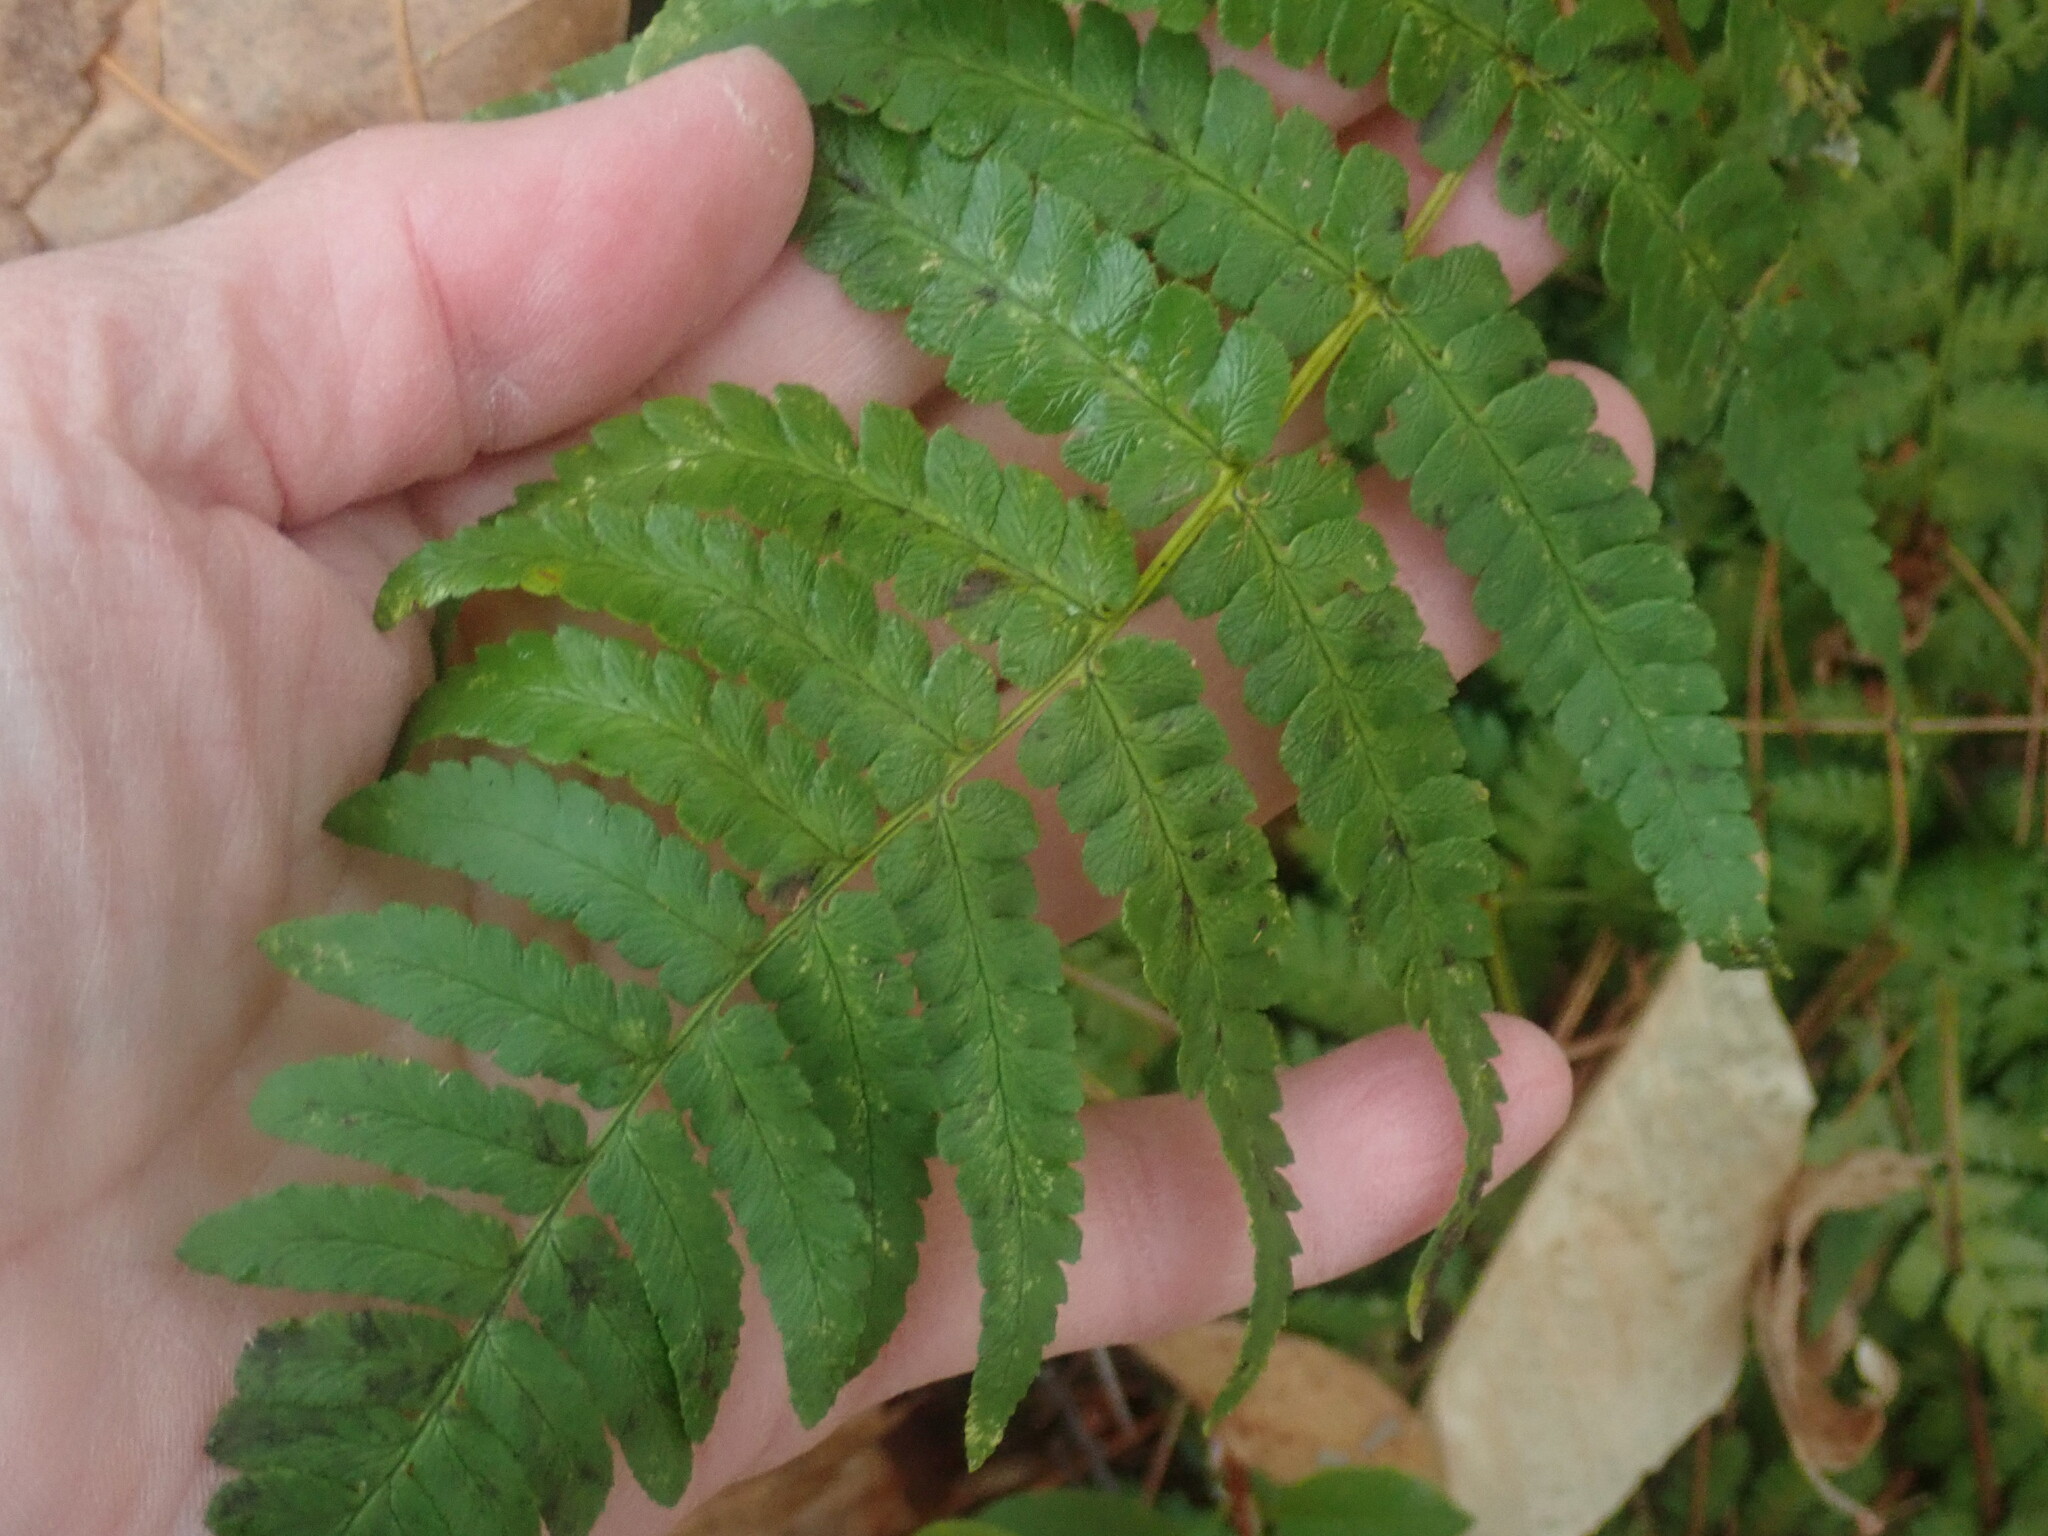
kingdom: Plantae
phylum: Tracheophyta
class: Polypodiopsida
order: Polypodiales
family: Dryopteridaceae
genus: Dryopteris
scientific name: Dryopteris marginalis
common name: Marginal wood fern
